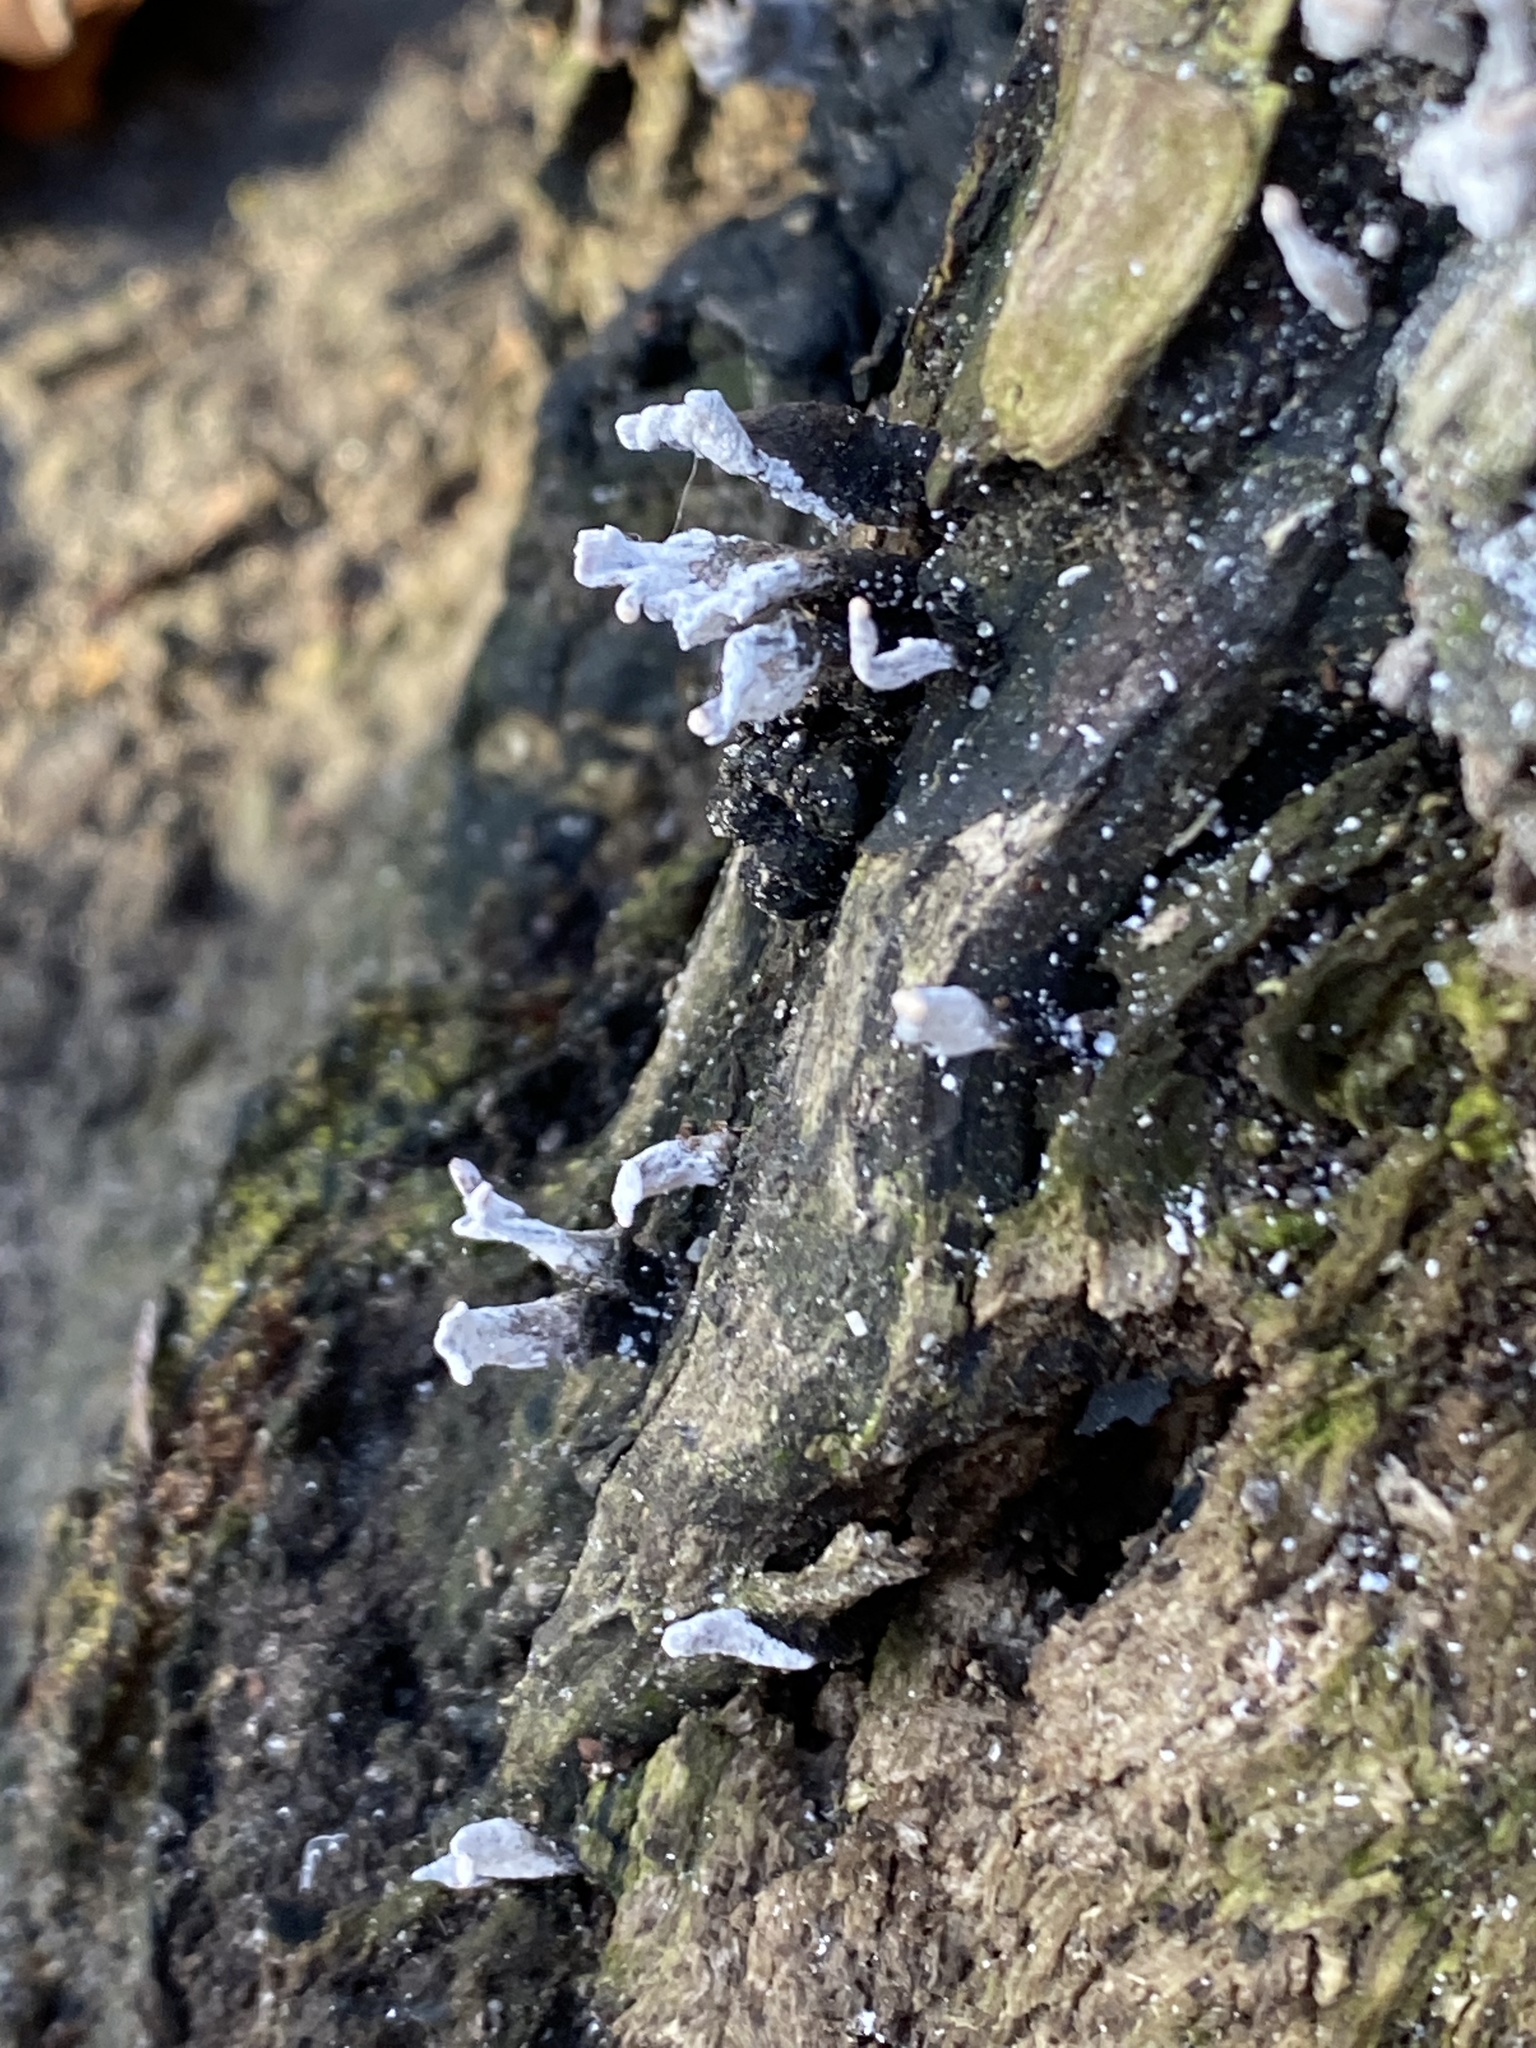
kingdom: Fungi
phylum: Ascomycota
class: Sordariomycetes
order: Xylariales
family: Xylariaceae
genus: Xylaria
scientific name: Xylaria hypoxylon
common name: Candle-snuff fungus
